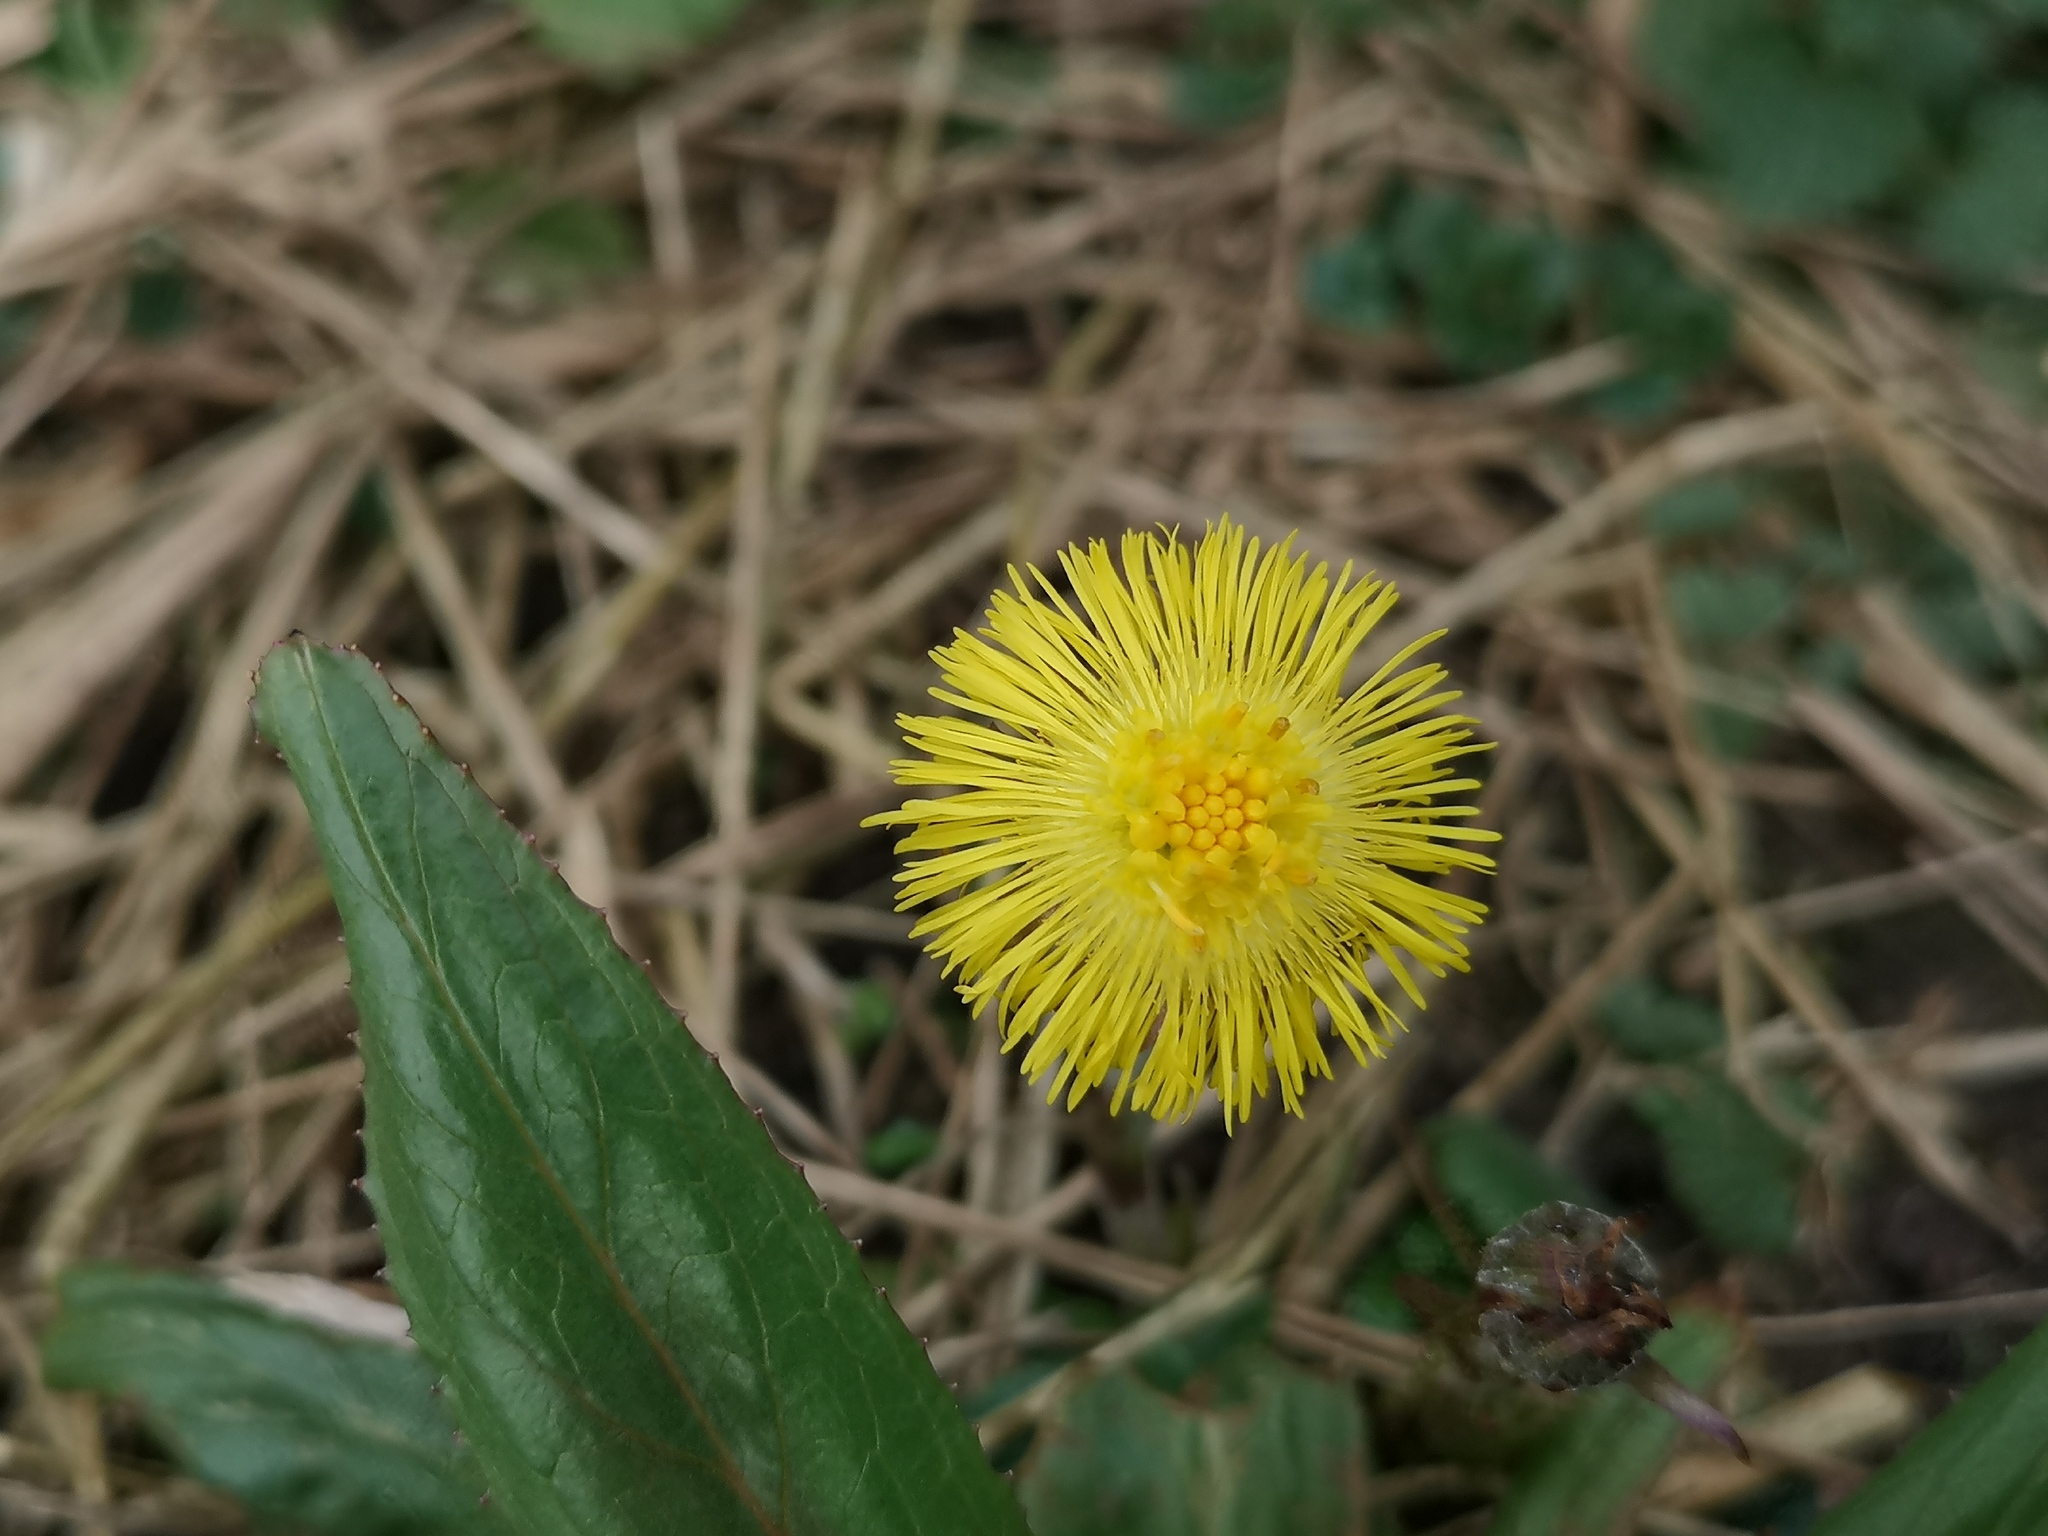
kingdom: Plantae
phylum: Tracheophyta
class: Magnoliopsida
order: Asterales
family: Asteraceae
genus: Tussilago
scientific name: Tussilago farfara
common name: Coltsfoot
